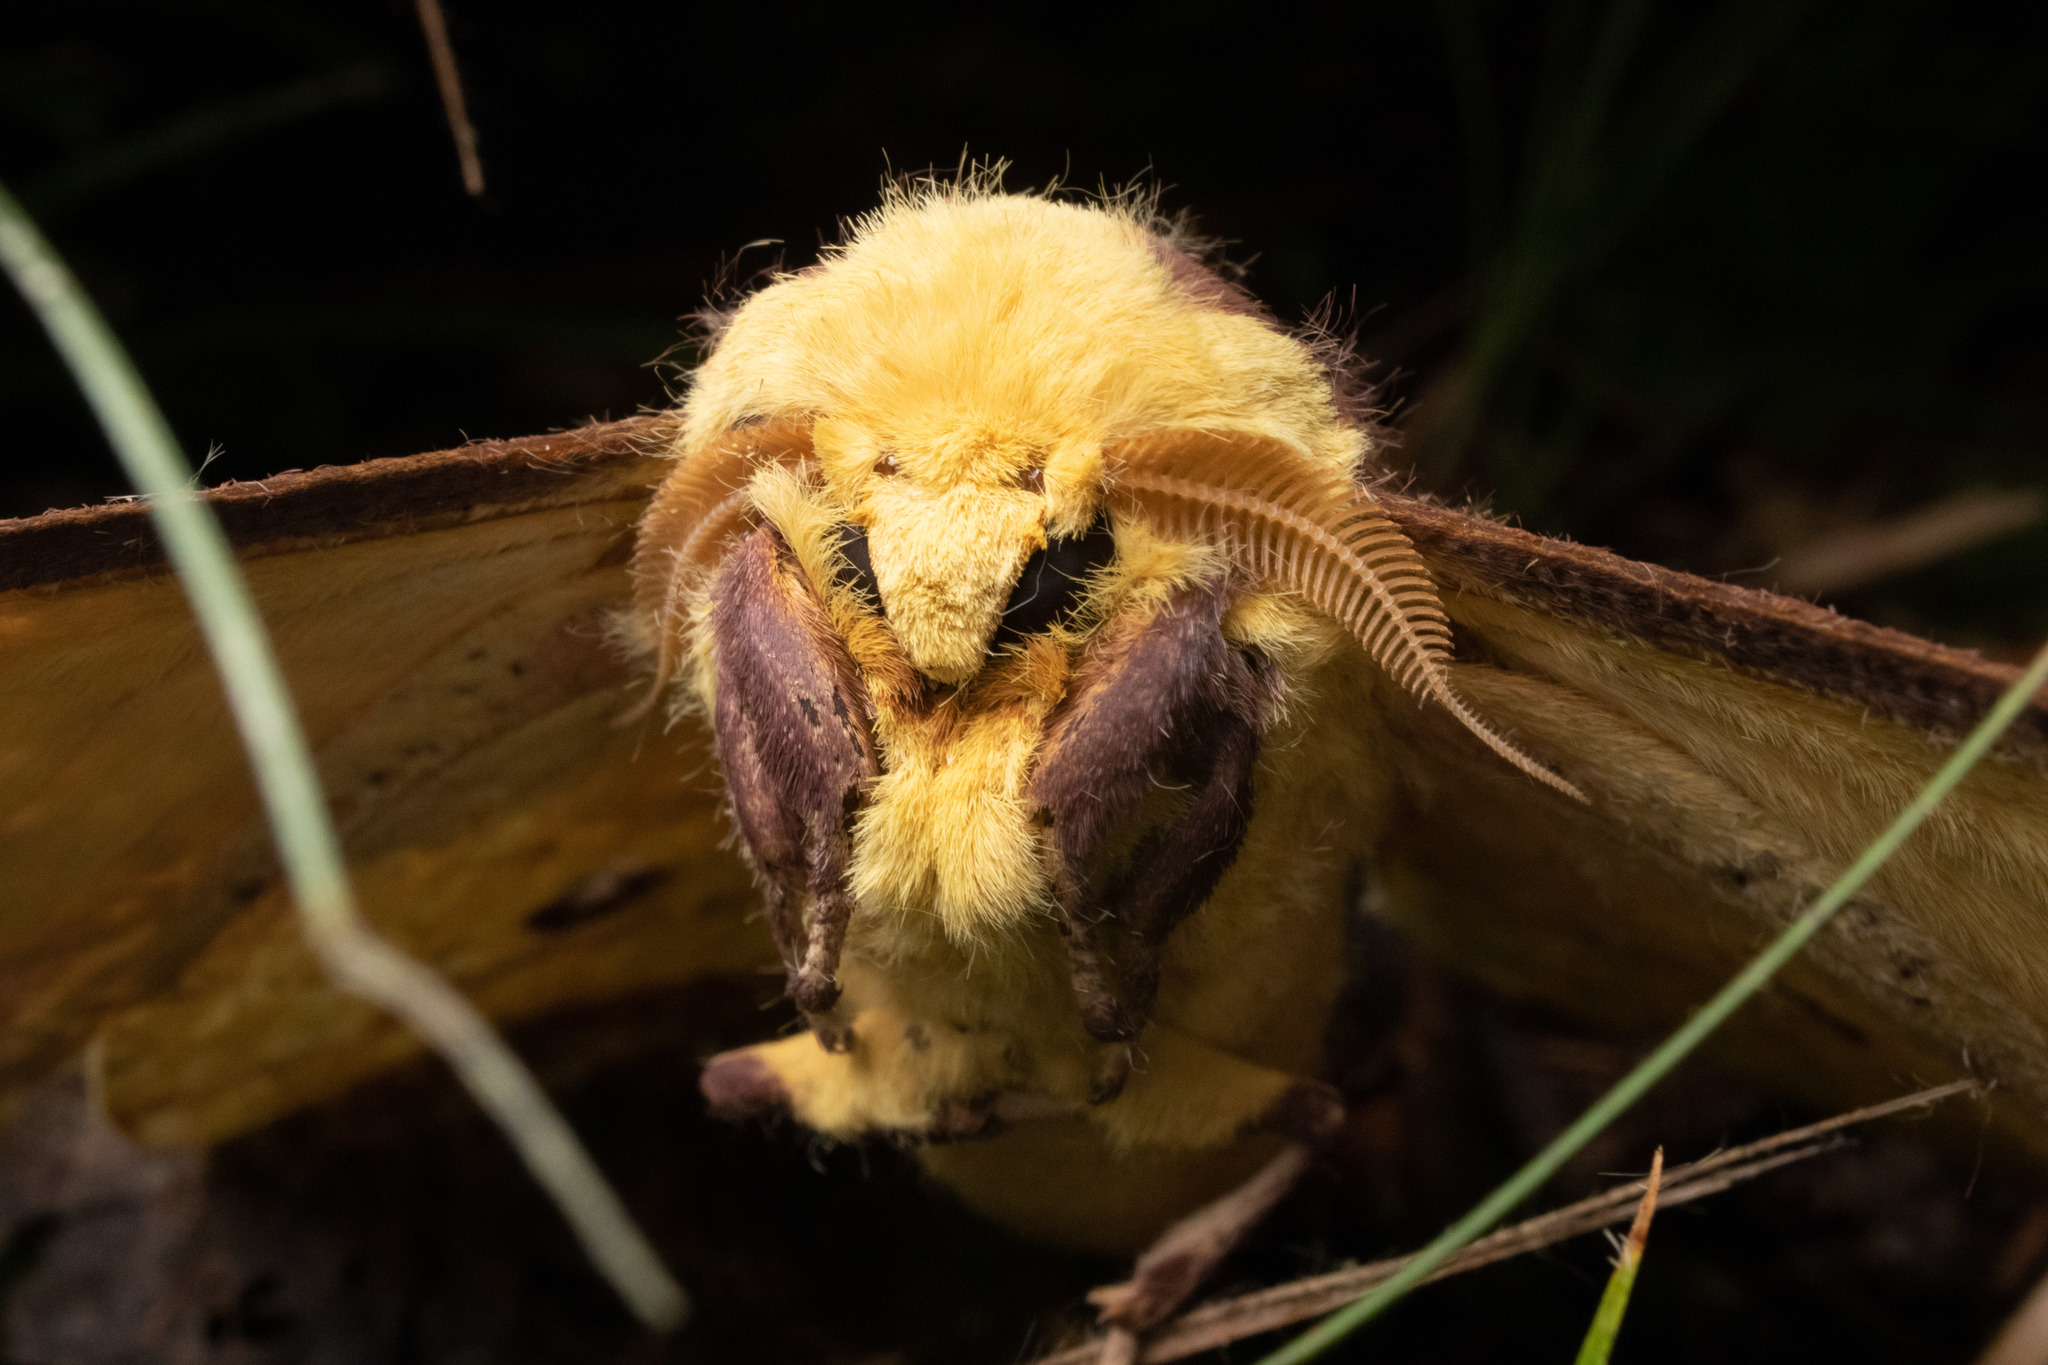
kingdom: Animalia
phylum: Arthropoda
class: Insecta
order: Lepidoptera
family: Saturniidae
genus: Eacles
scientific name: Eacles imperialis
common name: Imperial moth
